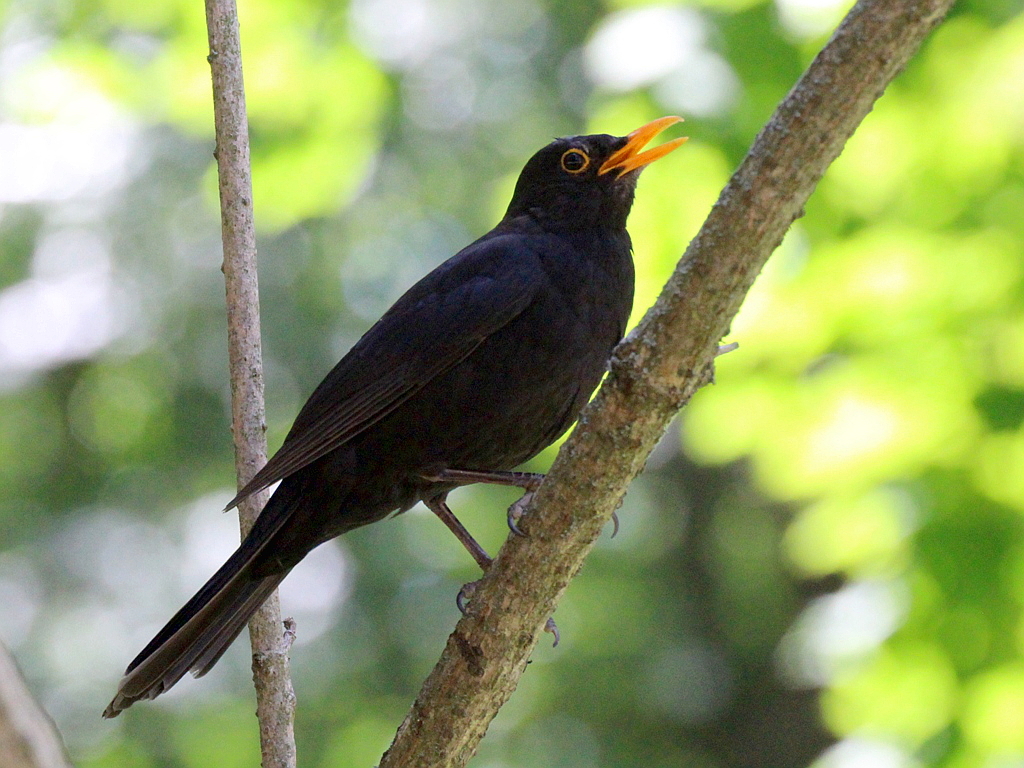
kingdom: Animalia
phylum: Chordata
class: Aves
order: Passeriformes
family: Turdidae
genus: Turdus
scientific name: Turdus merula
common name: Common blackbird
